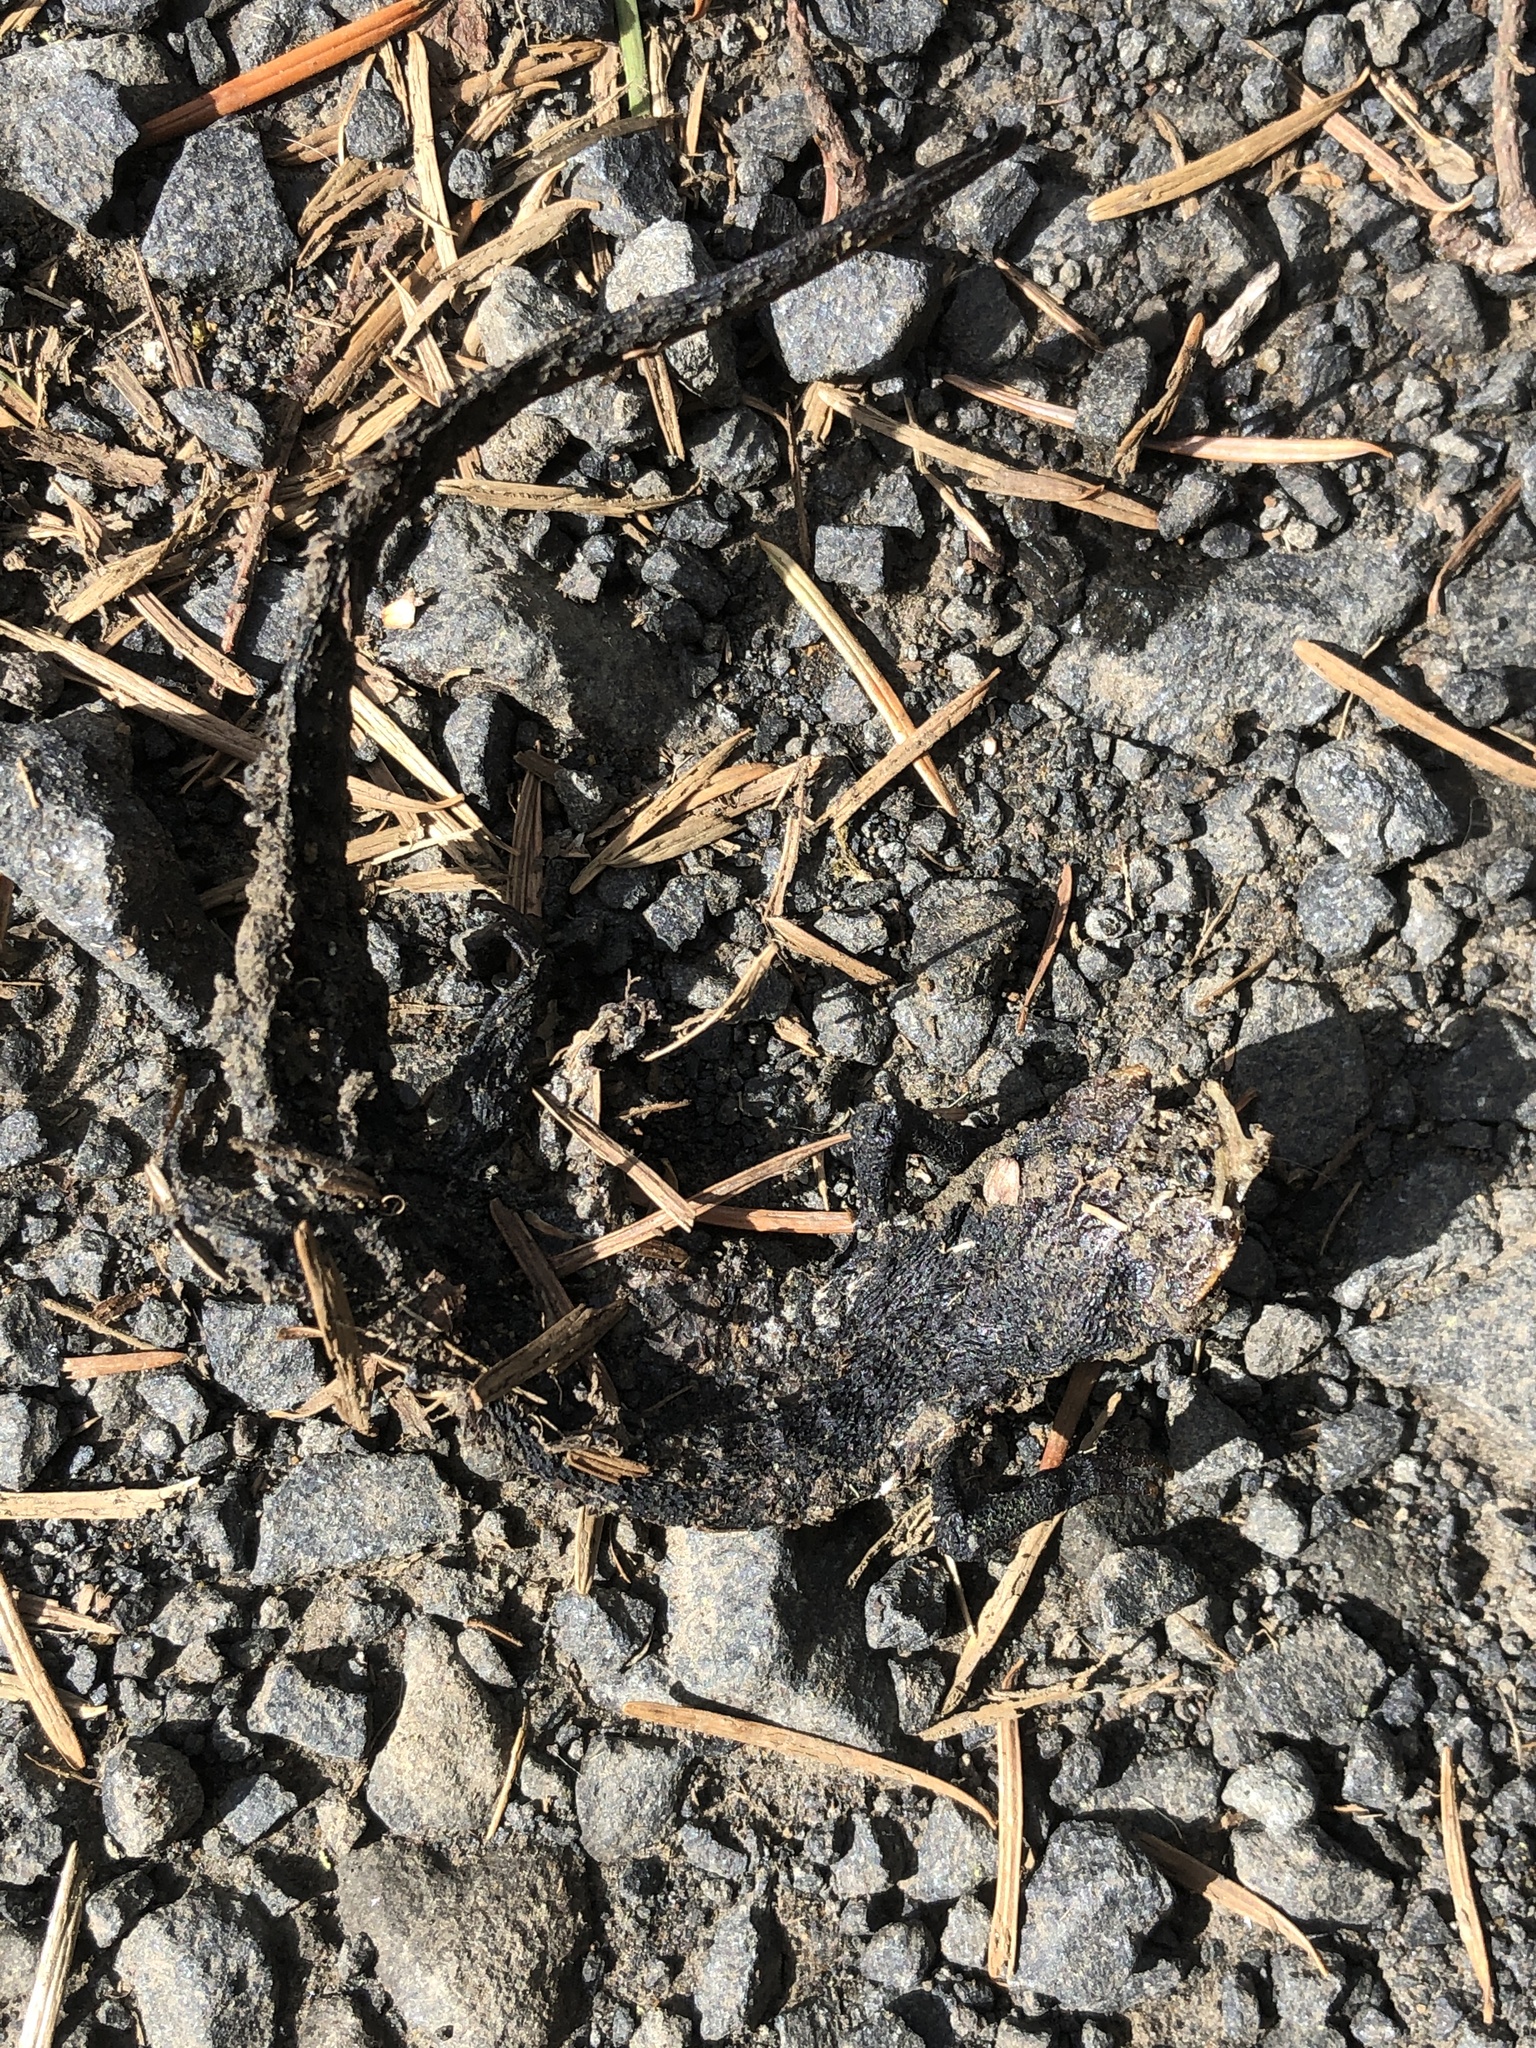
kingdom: Animalia
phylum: Chordata
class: Amphibia
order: Caudata
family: Salamandridae
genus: Taricha
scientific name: Taricha granulosa
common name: Roughskin newt
